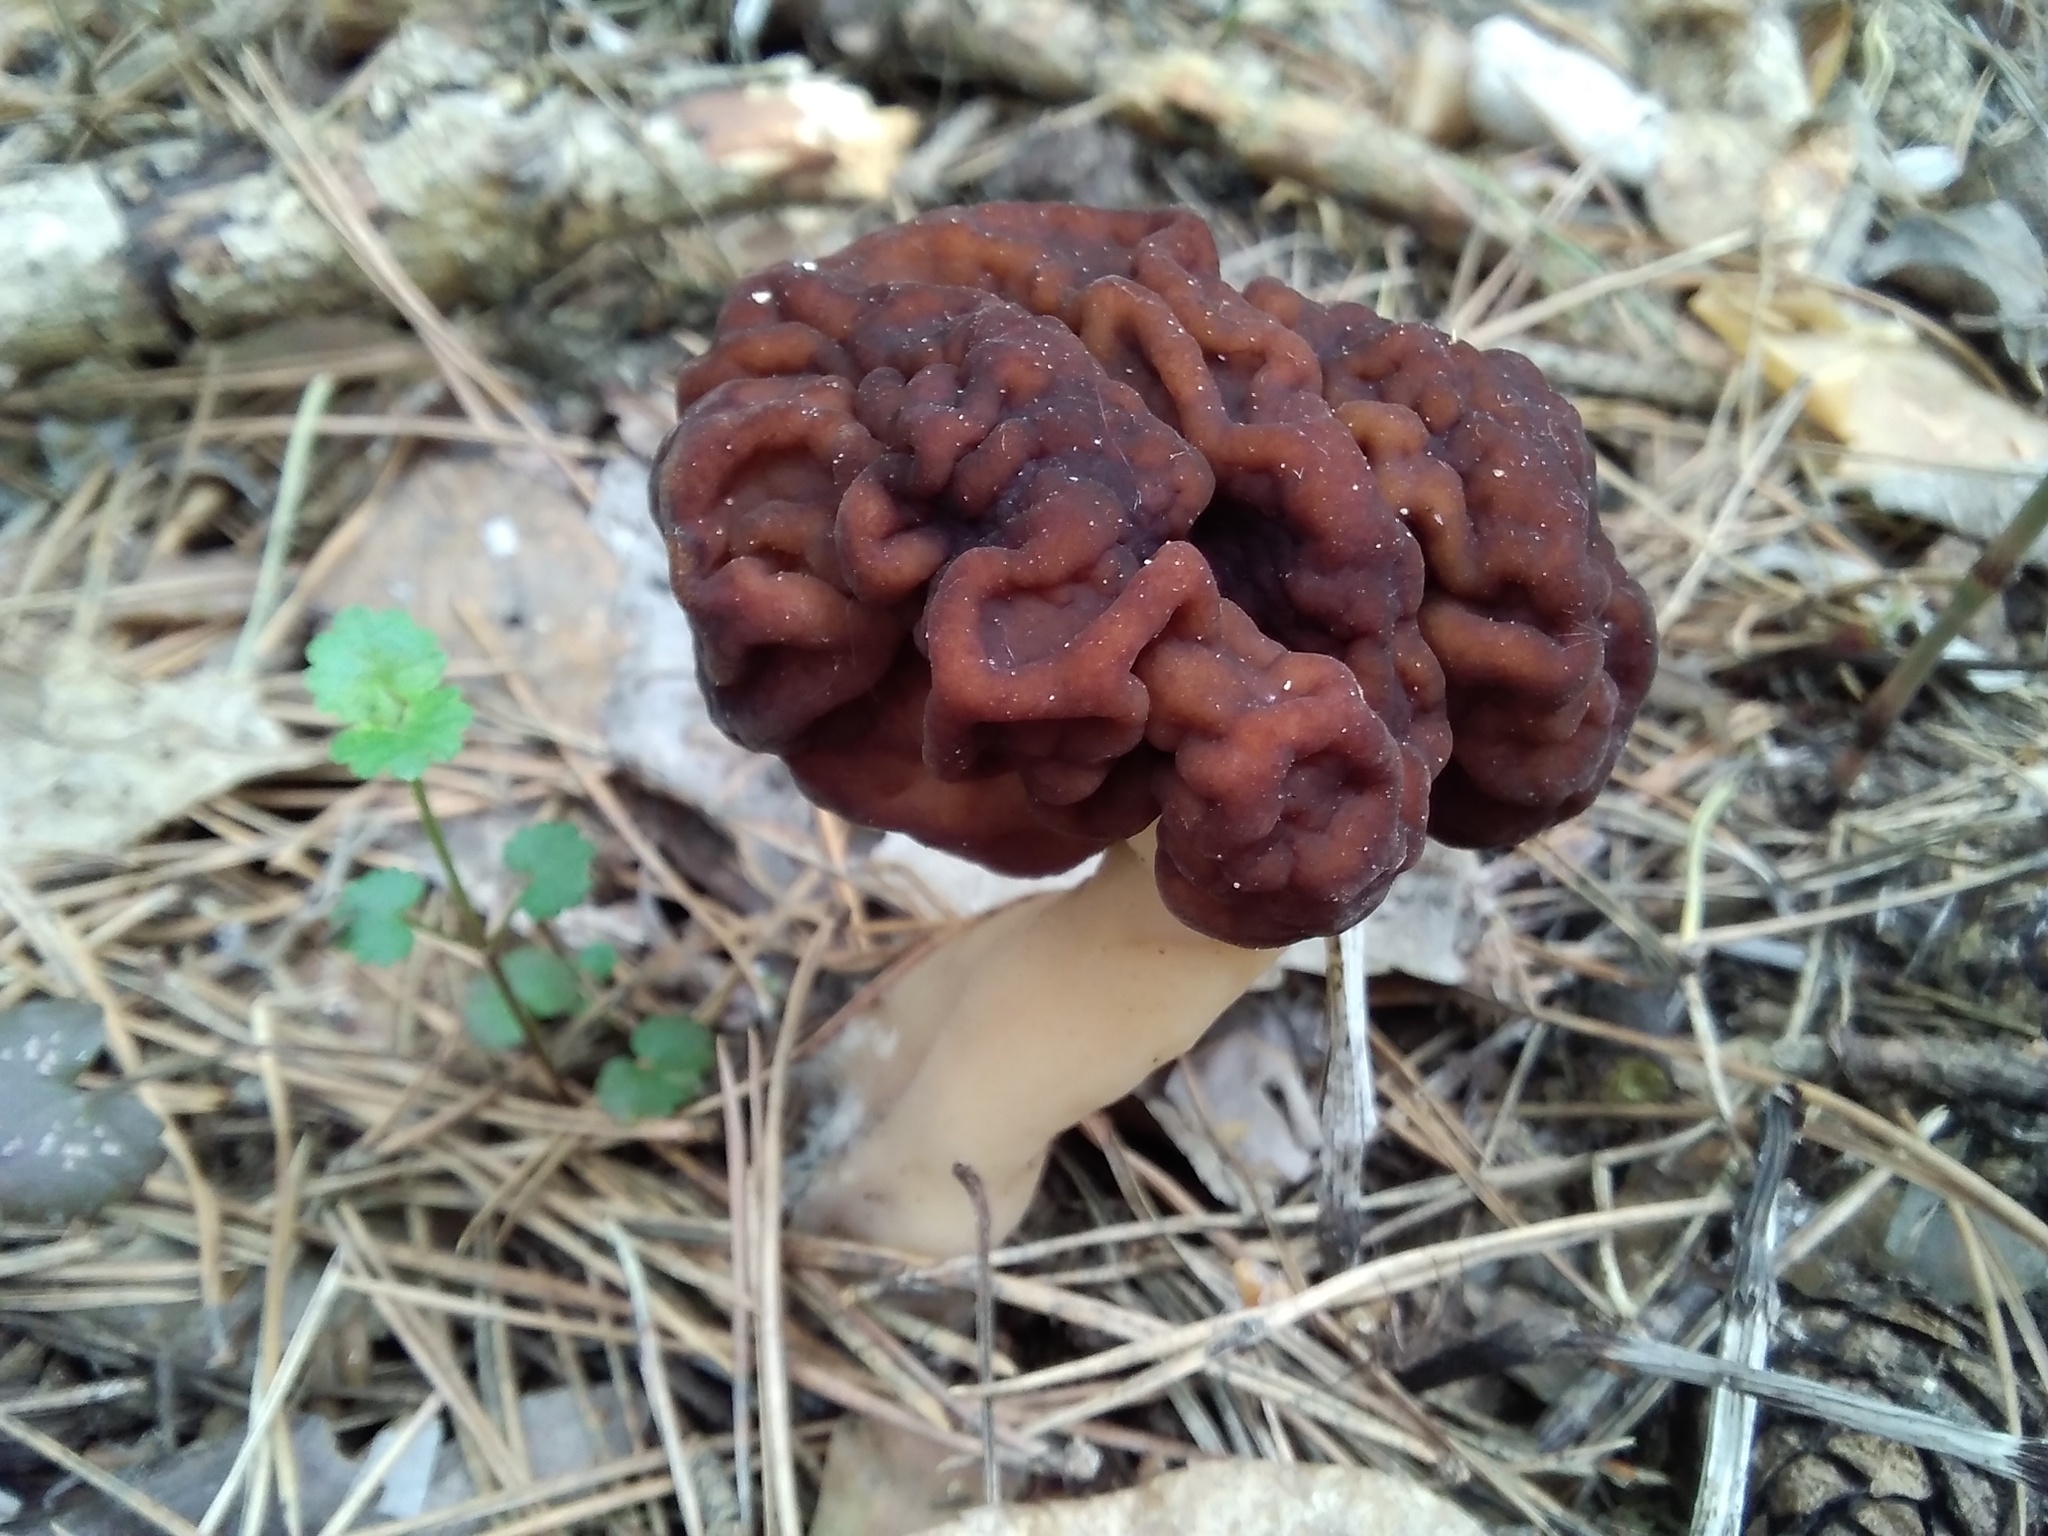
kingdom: Fungi
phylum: Ascomycota
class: Pezizomycetes
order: Pezizales
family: Discinaceae
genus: Gyromitra
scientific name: Gyromitra esculenta
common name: False morel
